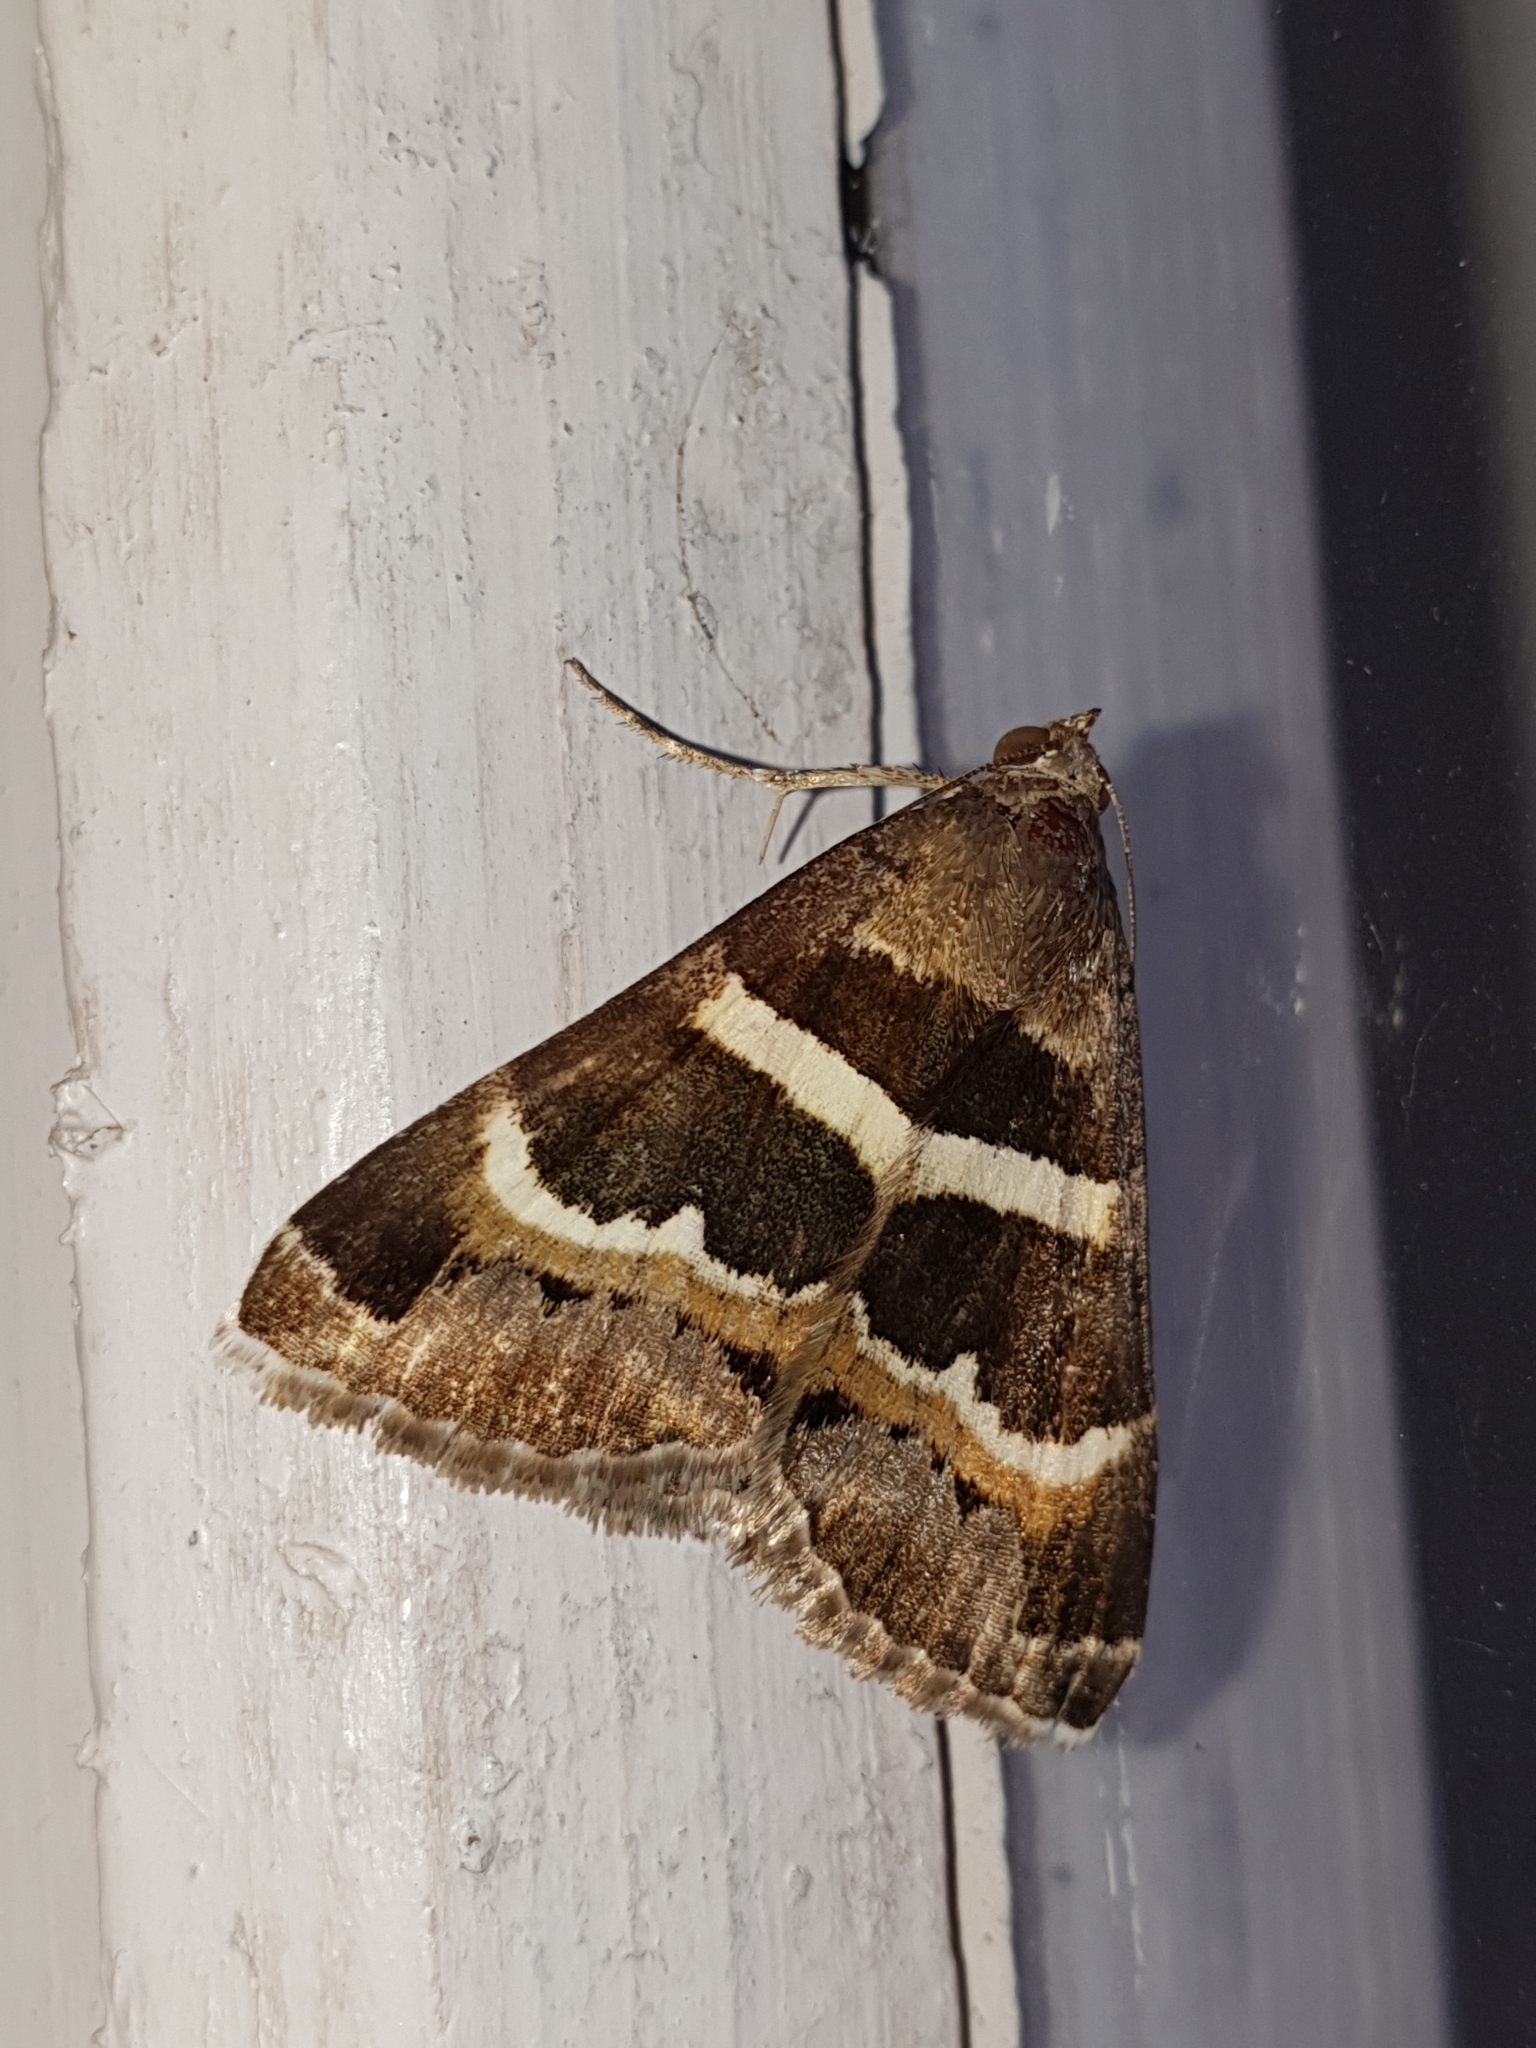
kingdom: Animalia
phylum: Arthropoda
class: Insecta
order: Lepidoptera
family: Erebidae
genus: Grammodes
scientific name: Grammodes stolida
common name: Geometrician
